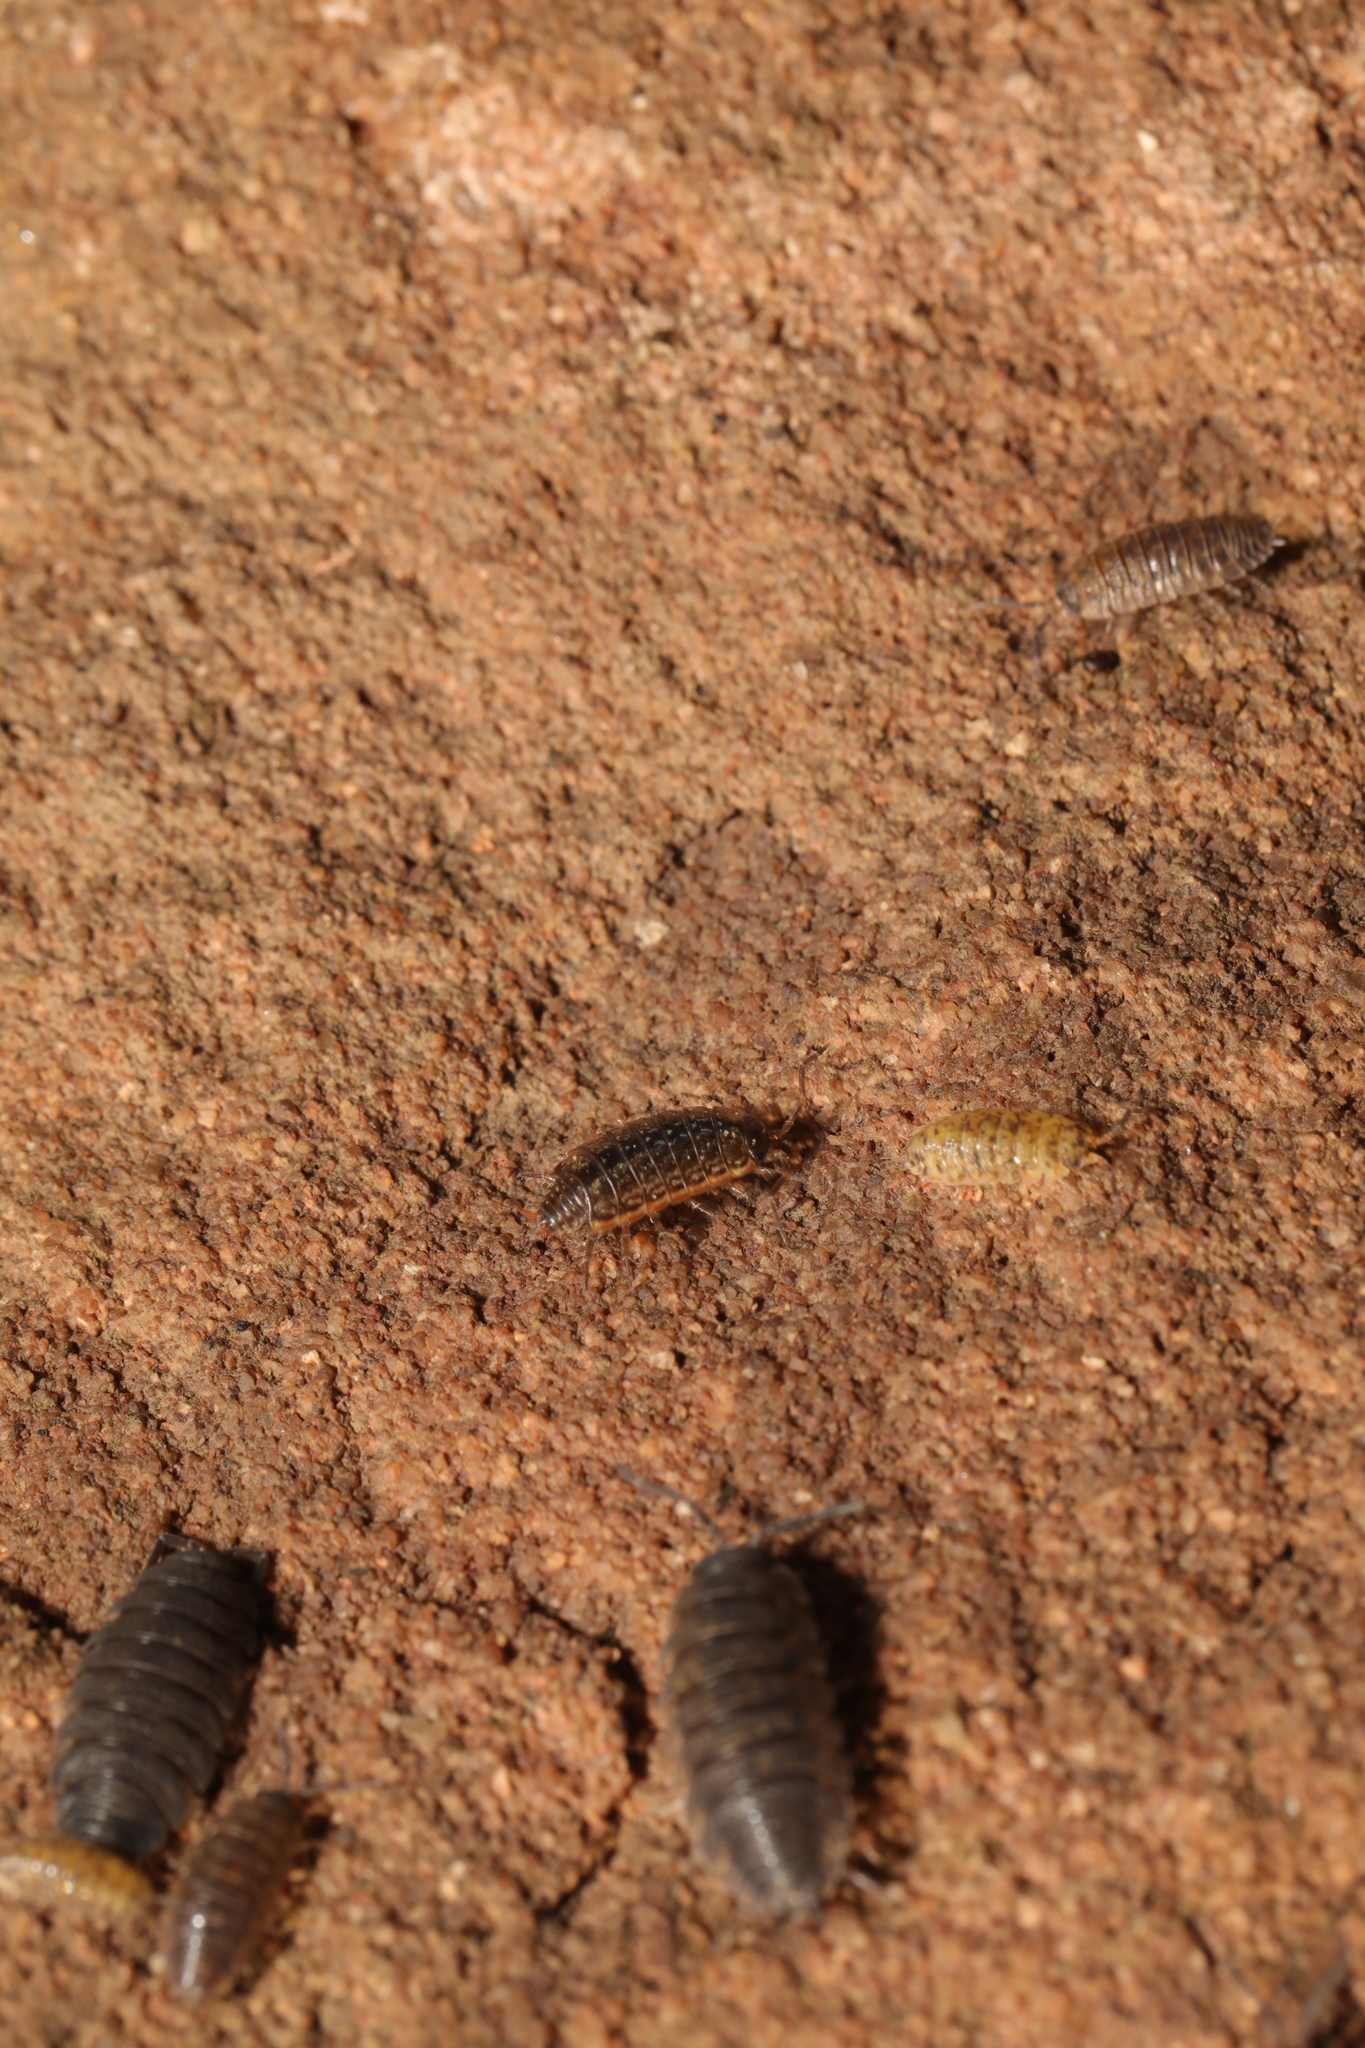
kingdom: Animalia
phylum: Arthropoda
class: Malacostraca
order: Isopoda
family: Philosciidae
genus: Philoscia
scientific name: Philoscia muscorum
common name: Common striped woodlouse
